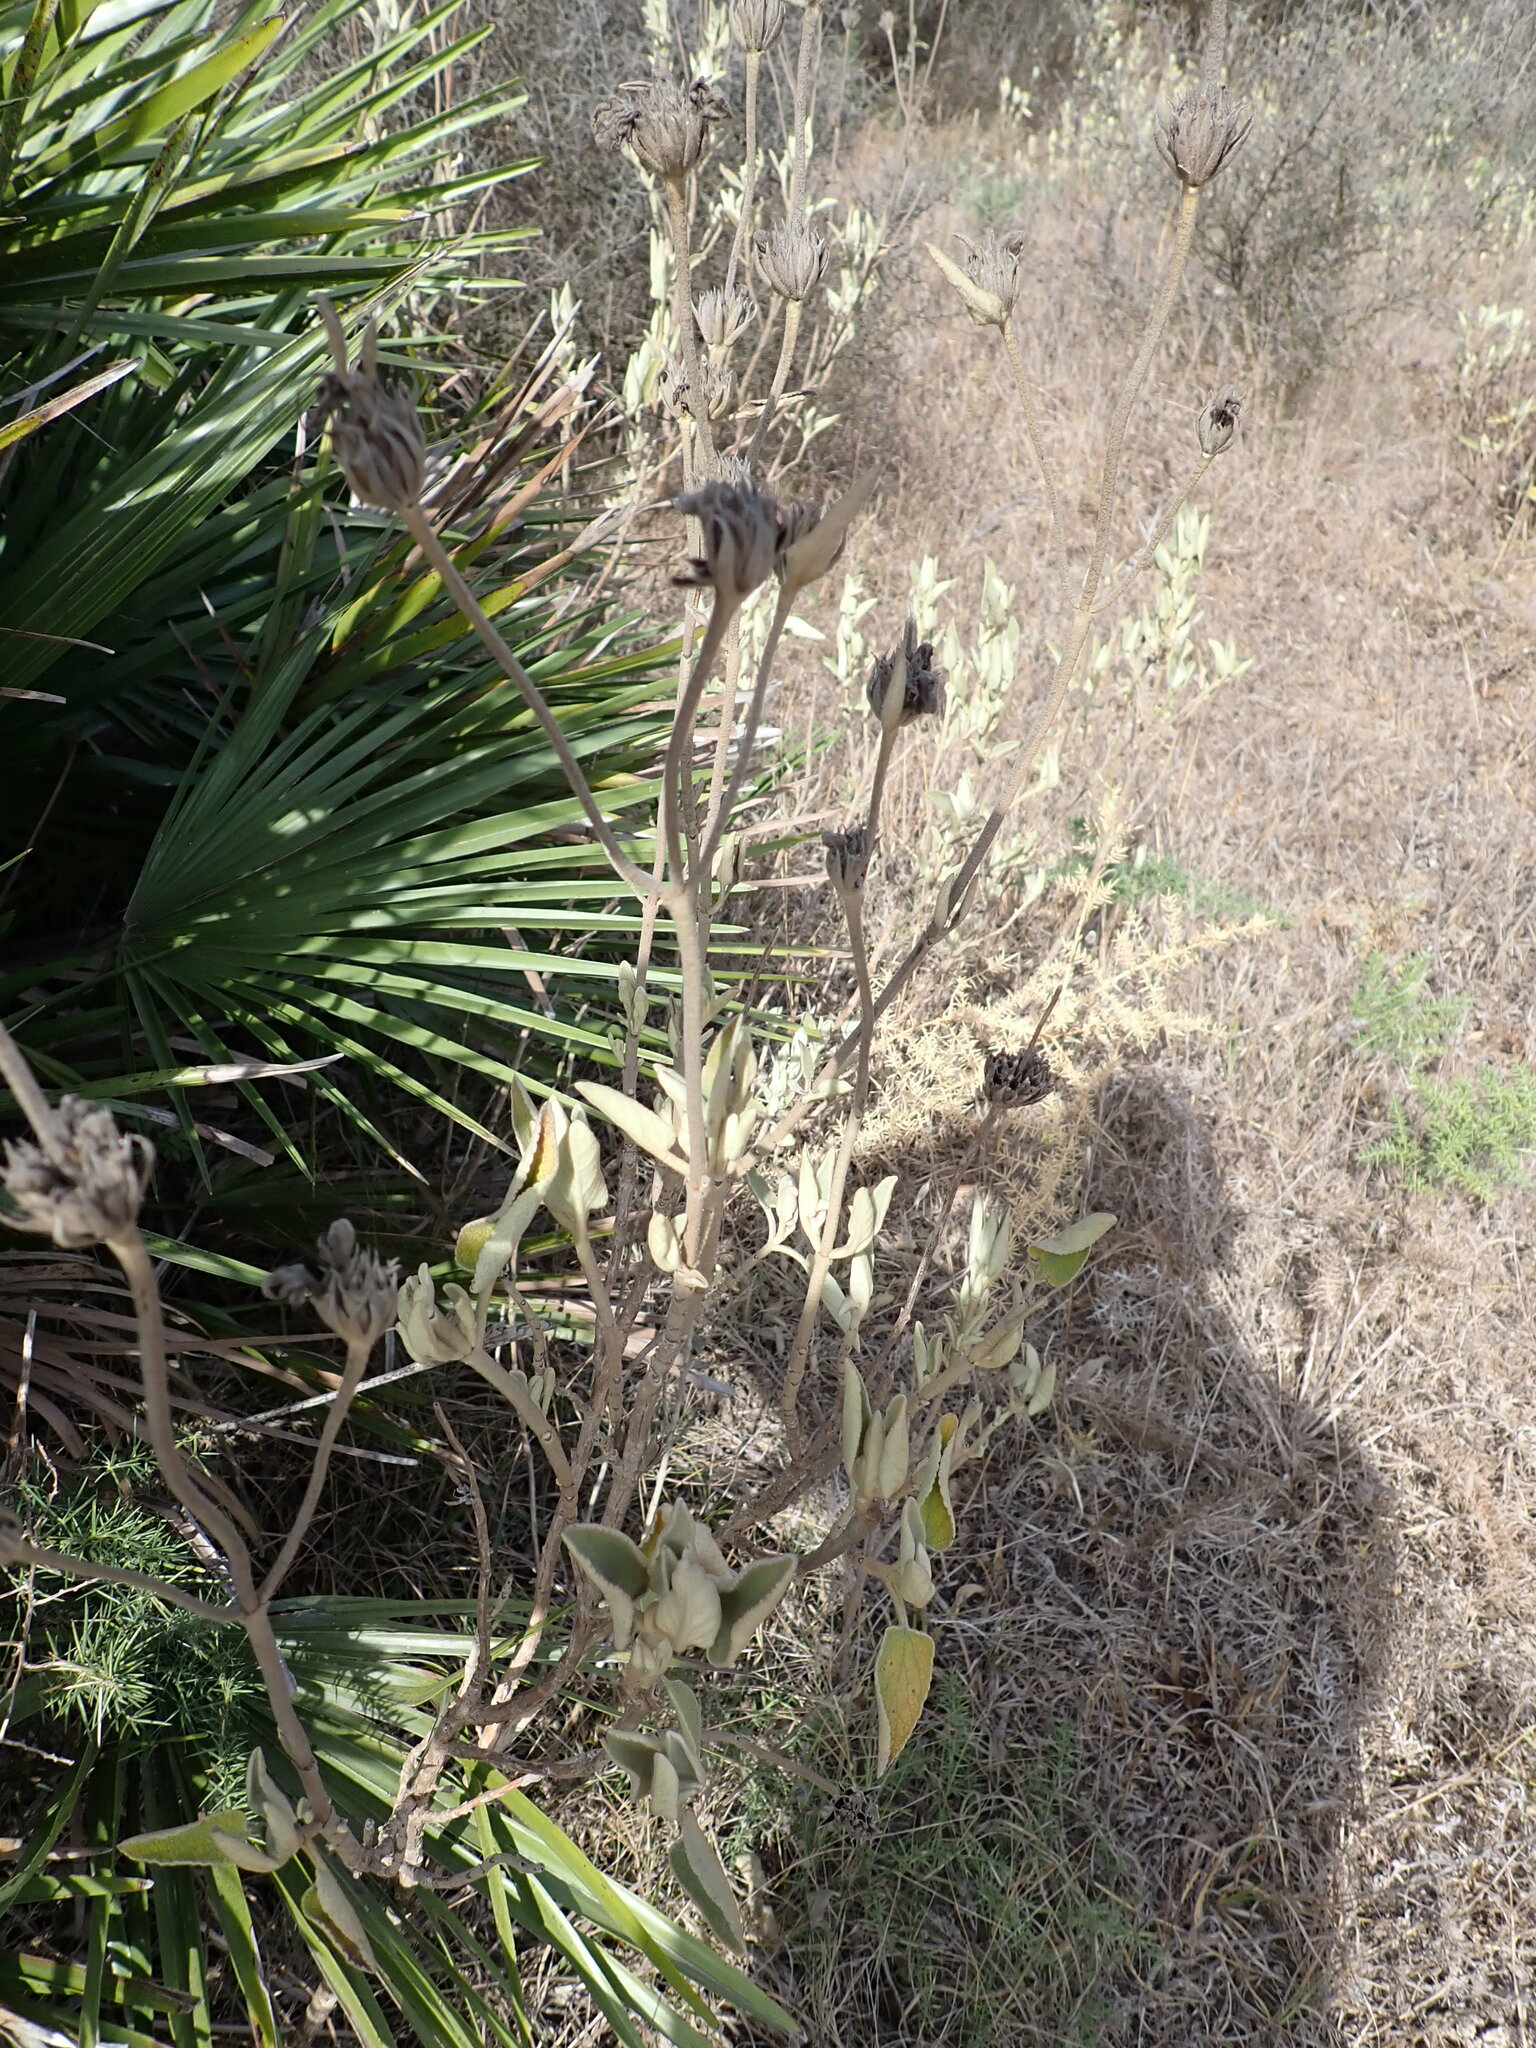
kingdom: Plantae
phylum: Tracheophyta
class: Magnoliopsida
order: Lamiales
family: Lamiaceae
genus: Phlomis
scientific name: Phlomis purpurea
